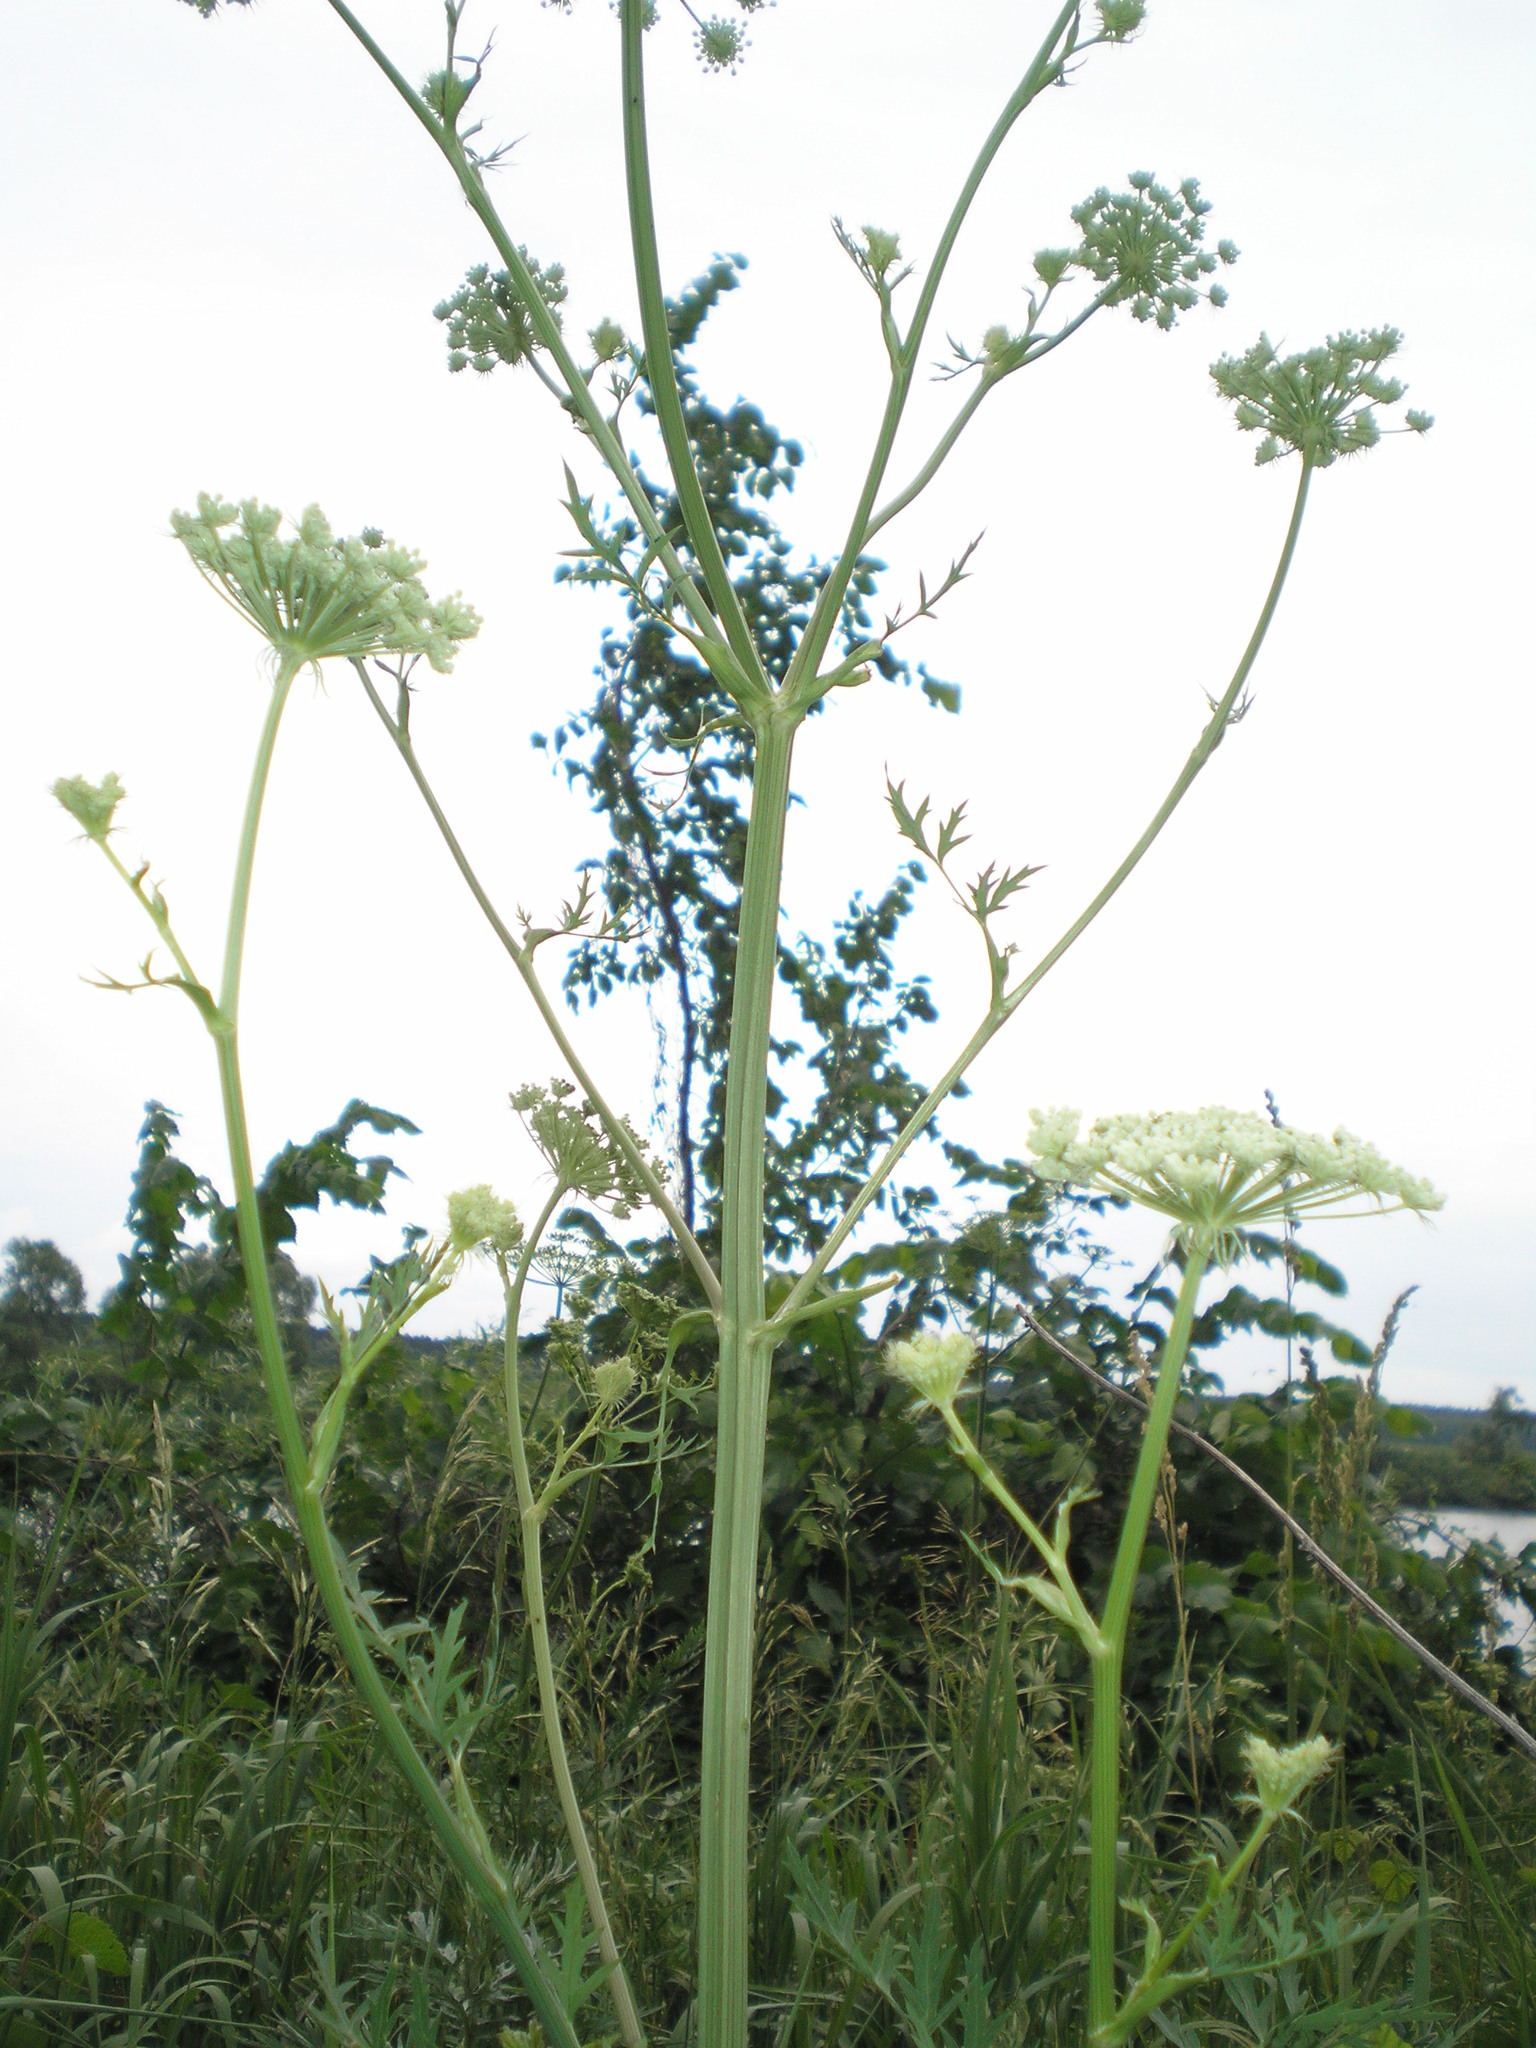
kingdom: Plantae
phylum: Tracheophyta
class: Magnoliopsida
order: Apiales
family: Apiaceae
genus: Seseli
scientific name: Seseli libanotis
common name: Mooncarrot
